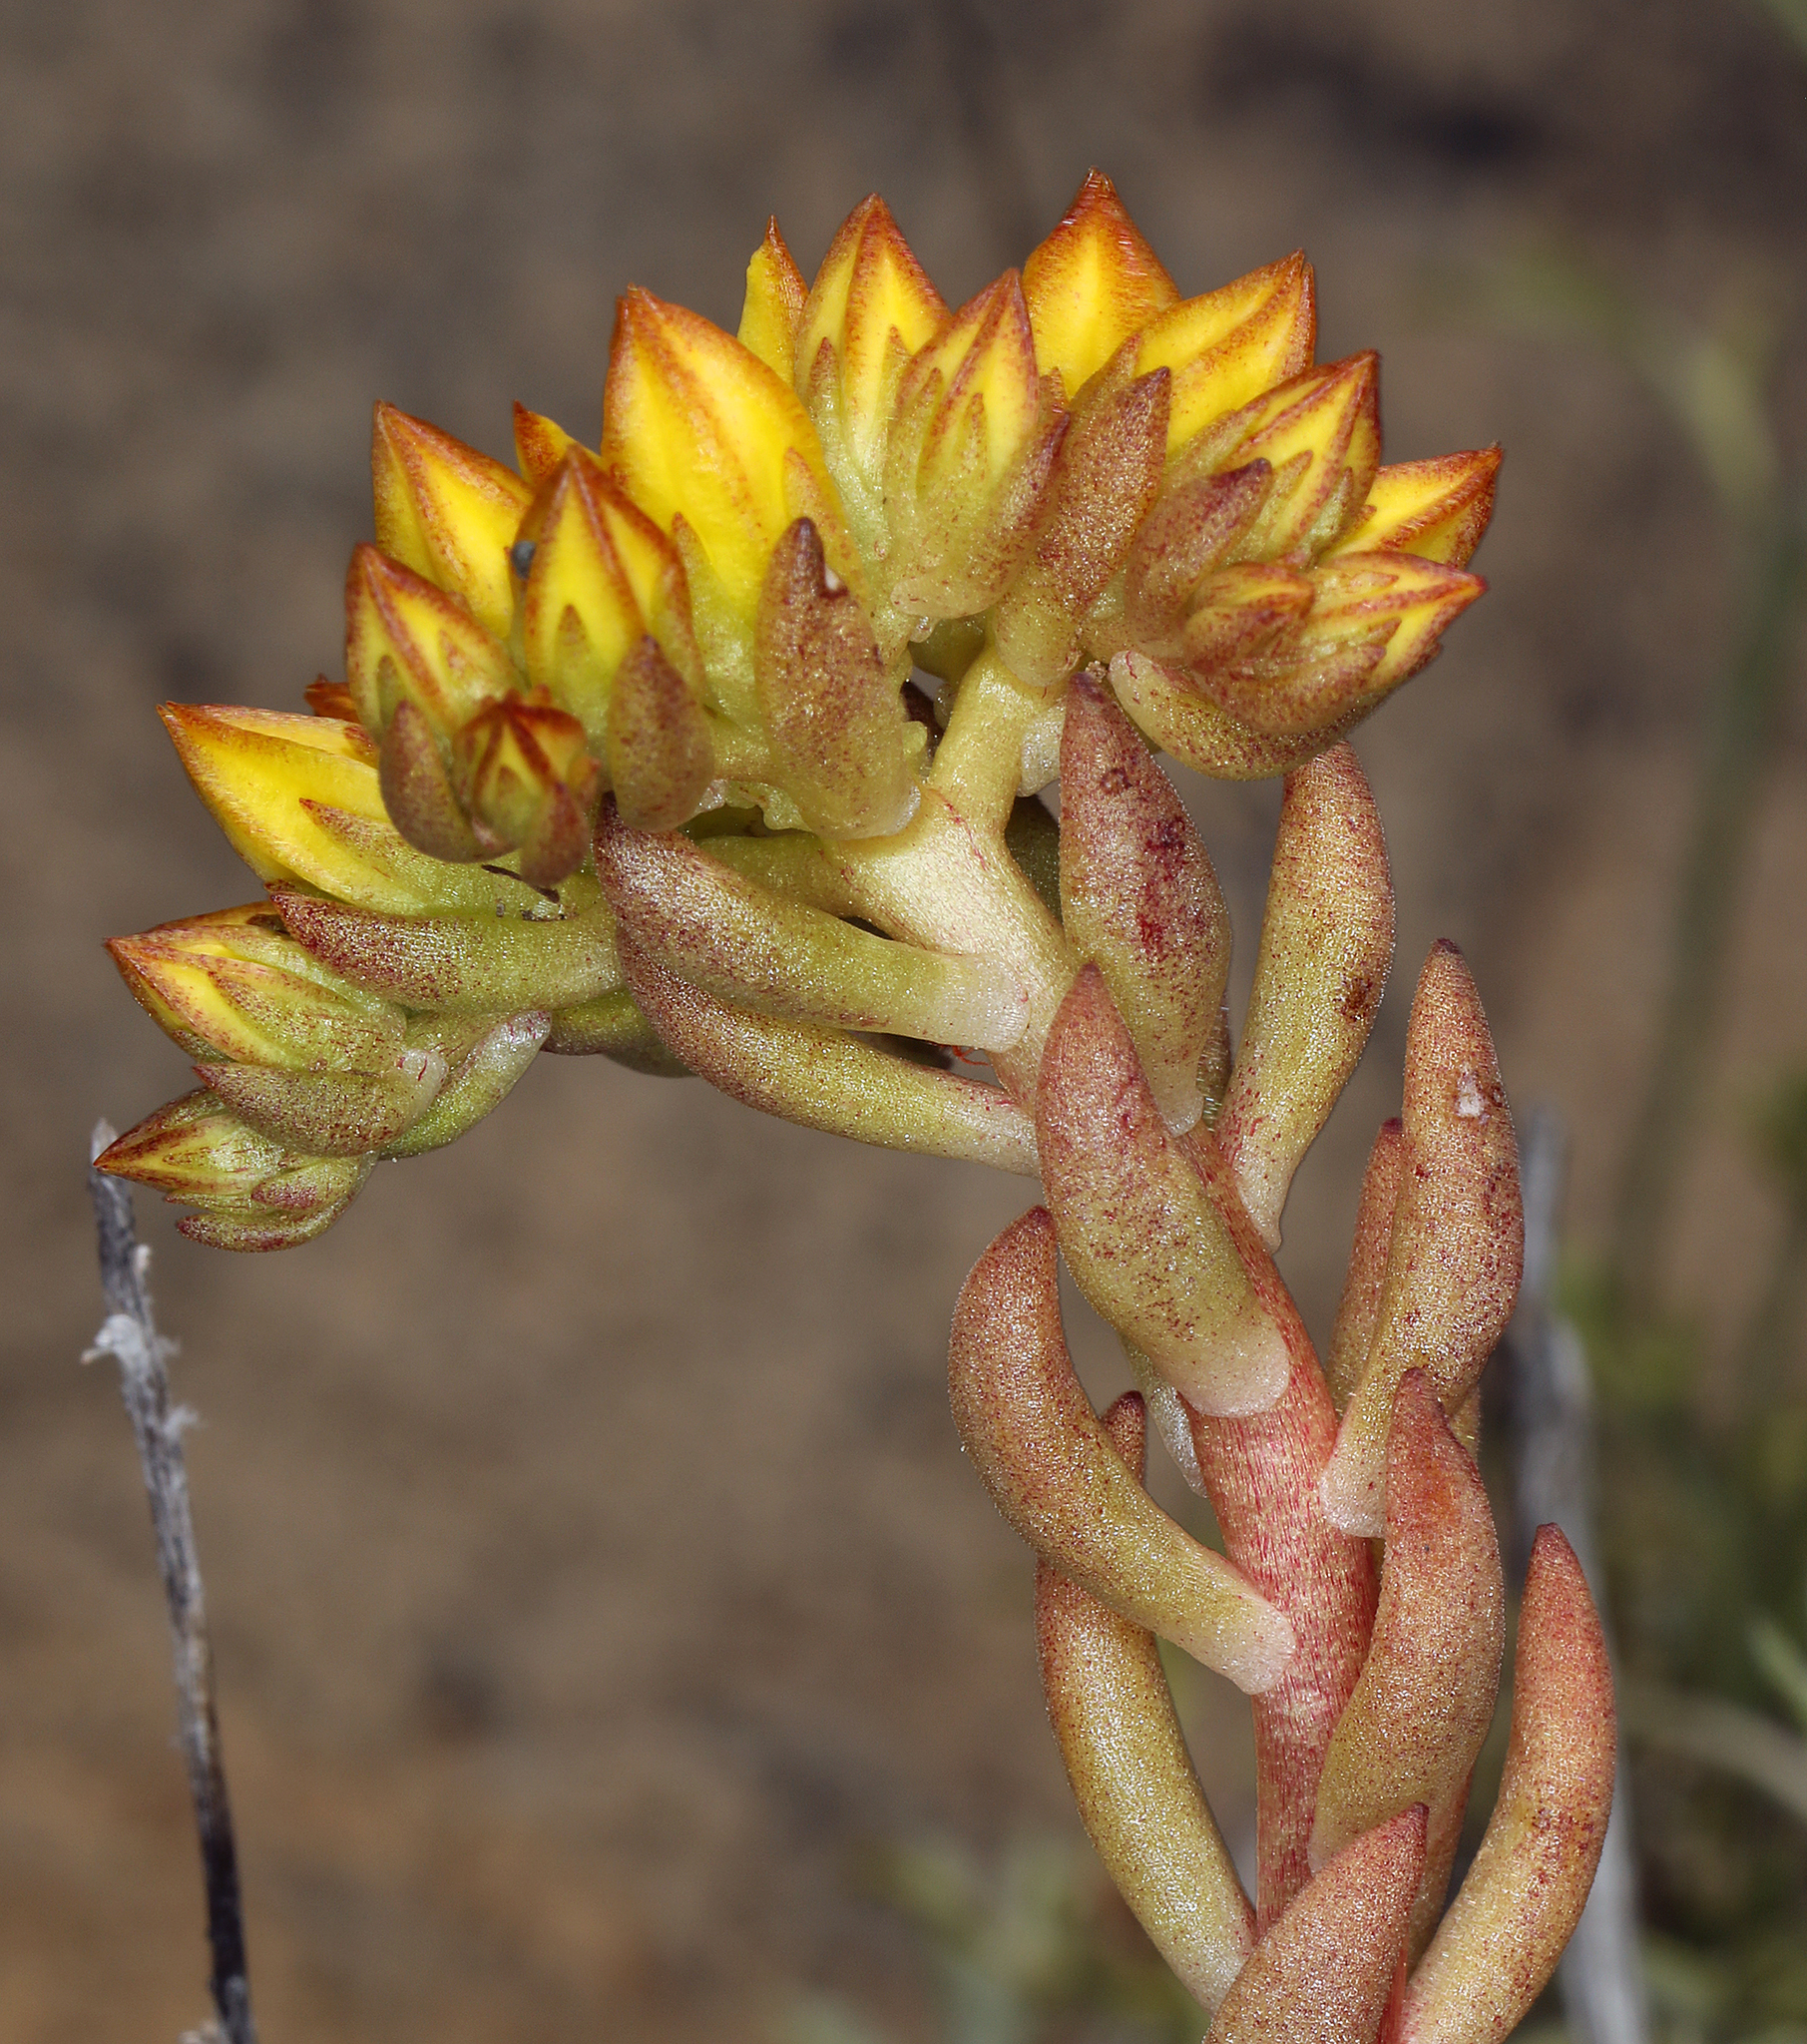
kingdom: Plantae
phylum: Tracheophyta
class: Magnoliopsida
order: Saxifragales
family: Crassulaceae
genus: Sedum
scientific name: Sedum stenopetalum
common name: Narrow-petaled stonecrop
